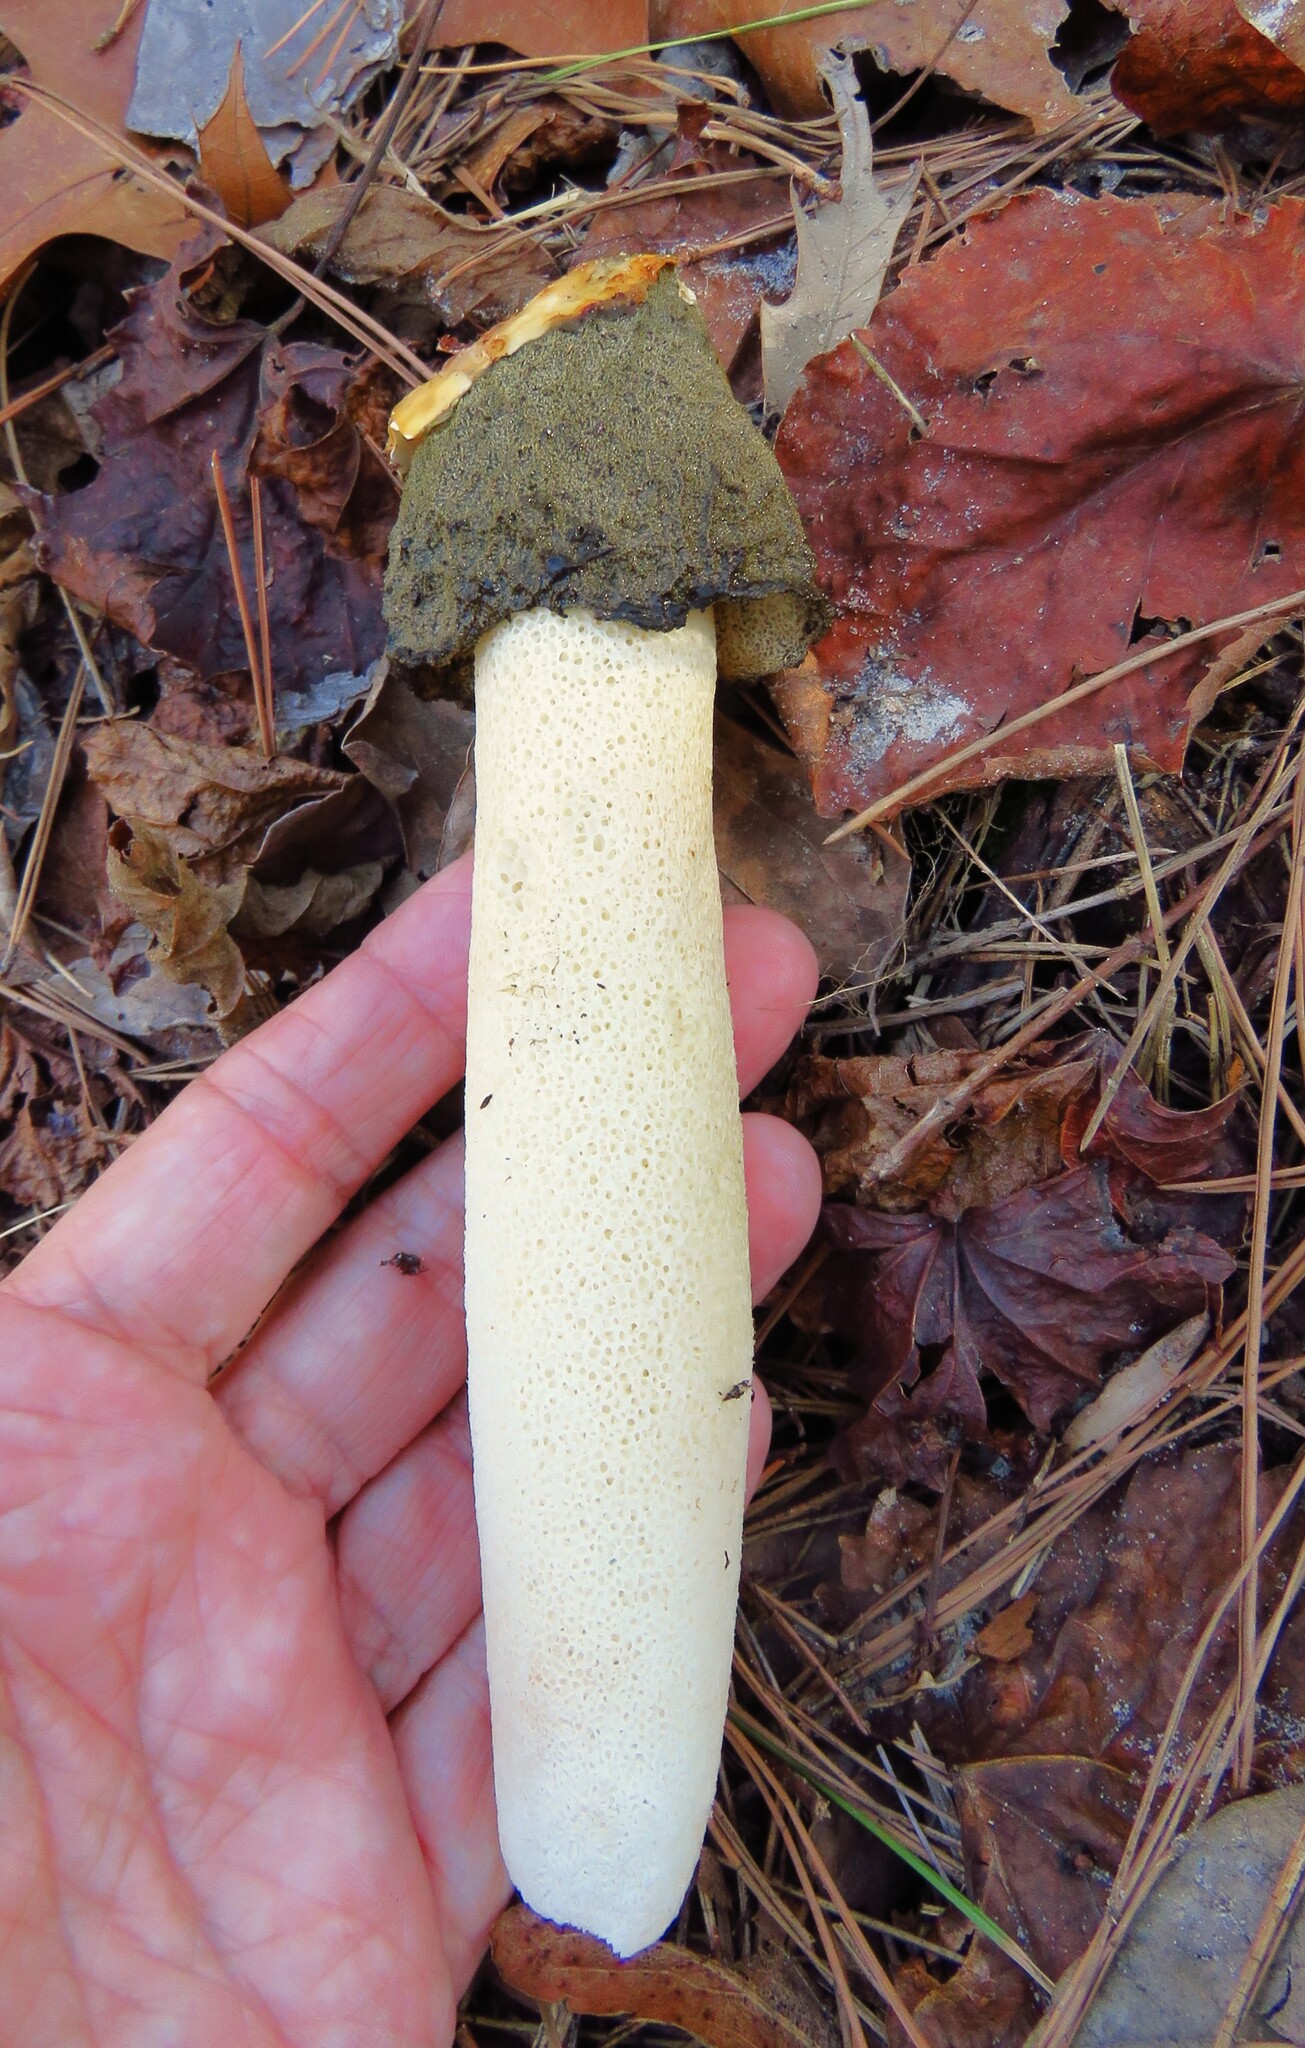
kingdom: Fungi
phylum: Basidiomycota
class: Agaricomycetes
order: Phallales
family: Phallaceae
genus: Phallus
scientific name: Phallus ravenelii
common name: Ravenel's stinkhorn
